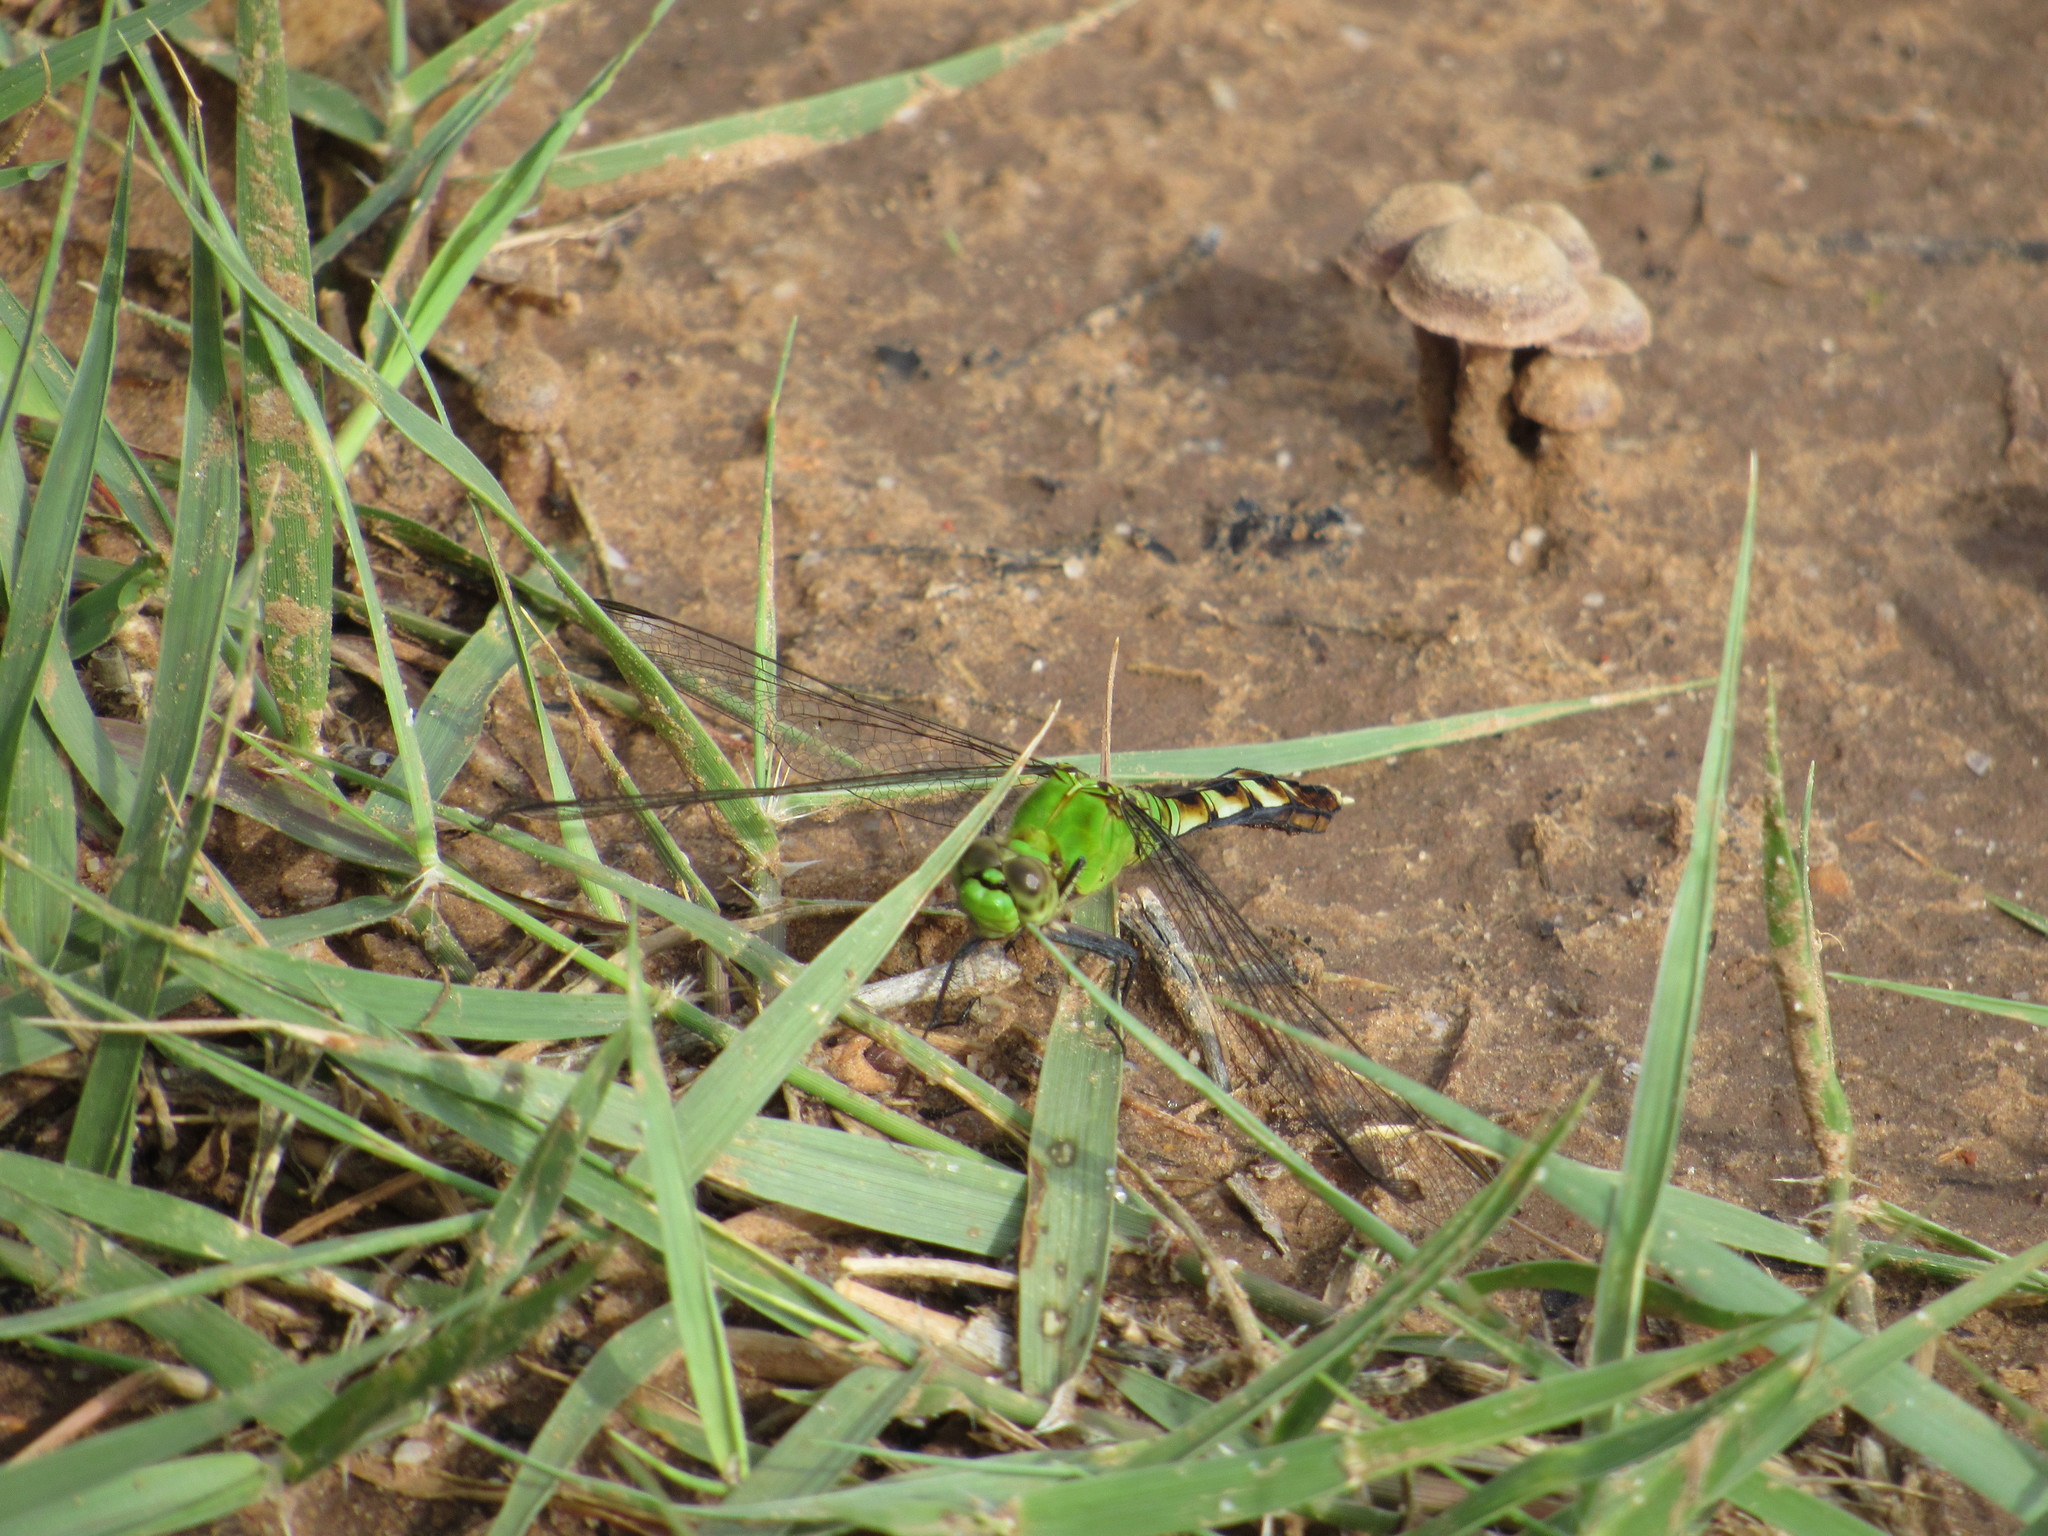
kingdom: Animalia
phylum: Arthropoda
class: Insecta
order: Odonata
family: Libellulidae
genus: Erythemis
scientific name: Erythemis simplicicollis
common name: Eastern pondhawk
